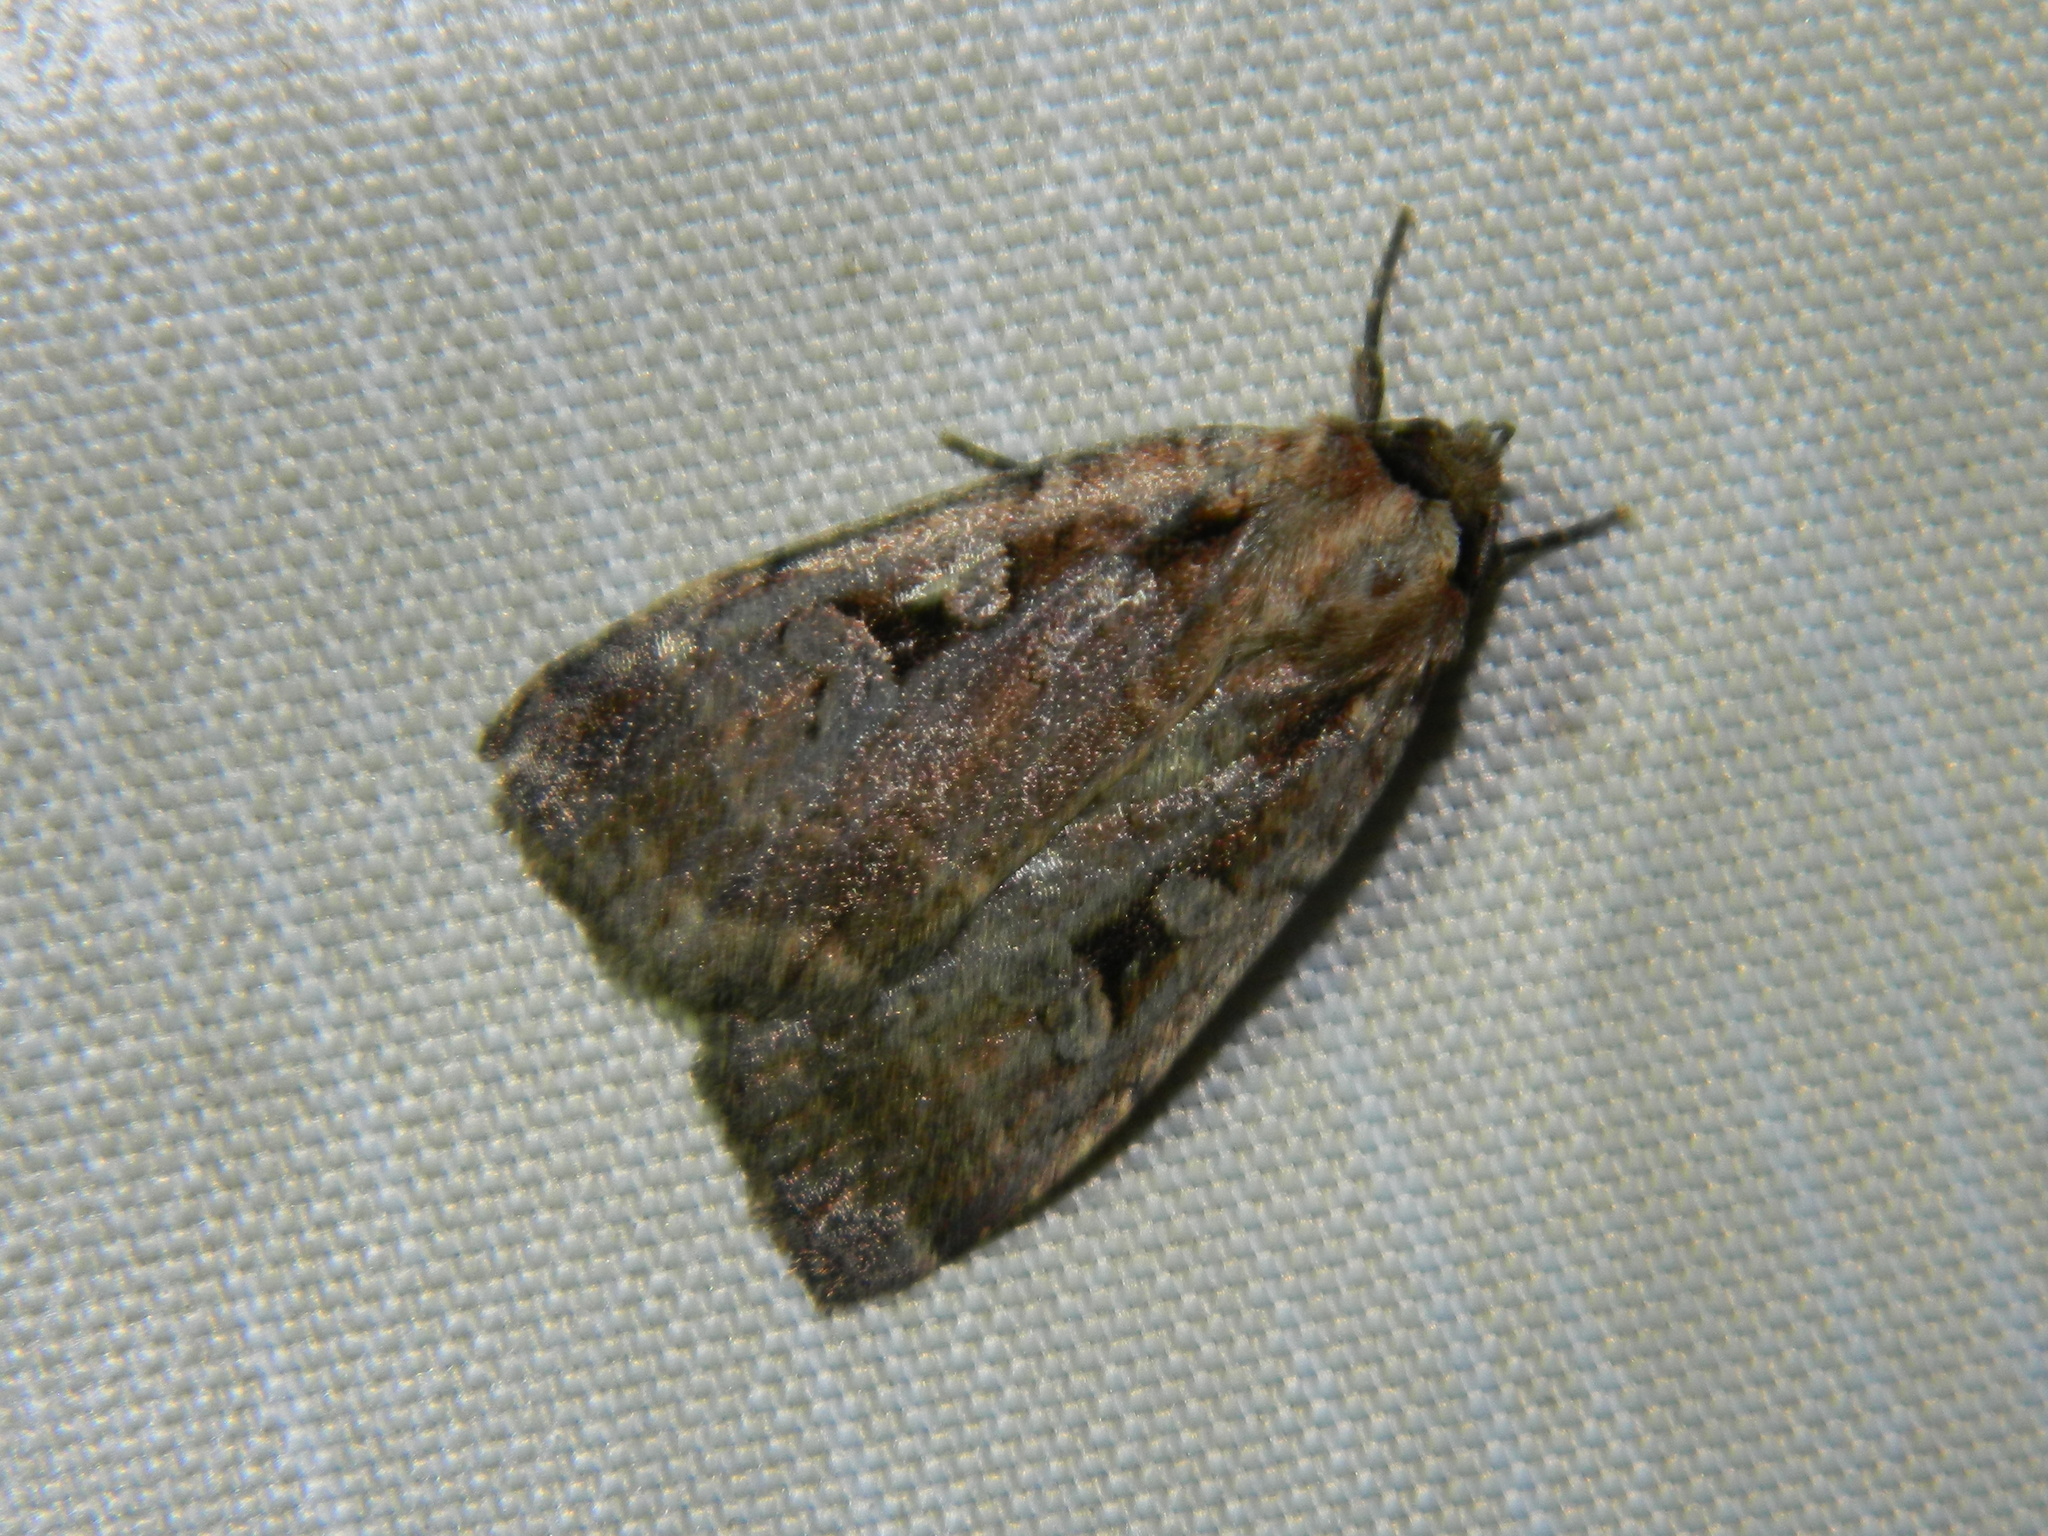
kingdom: Animalia
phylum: Arthropoda
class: Insecta
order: Lepidoptera
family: Noctuidae
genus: Eueretagrotis
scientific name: Eueretagrotis perattentus
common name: Two-spot dart moth
